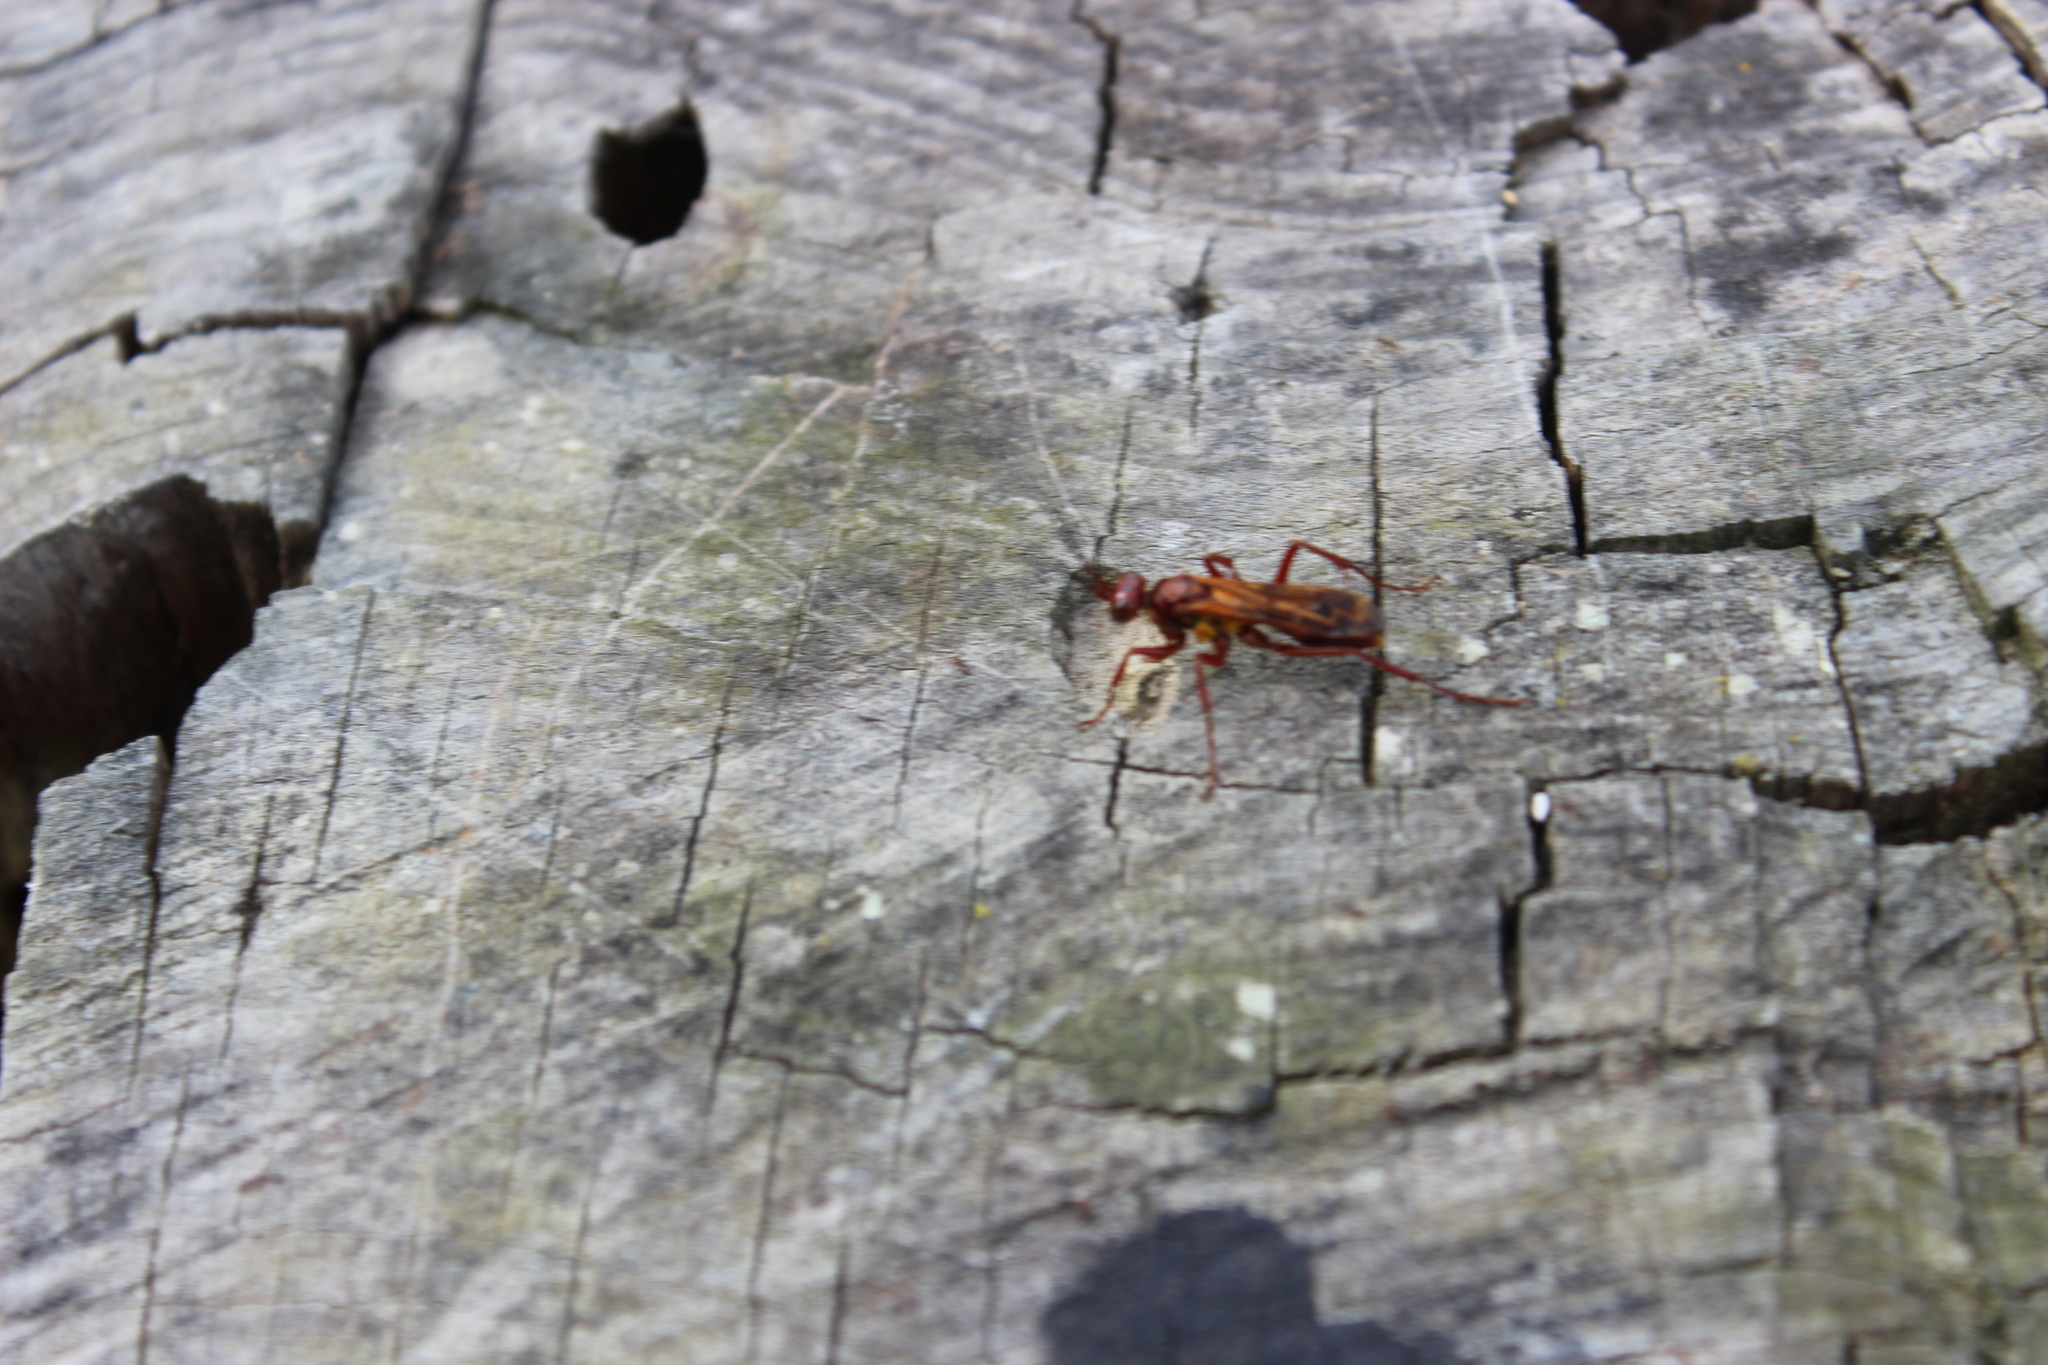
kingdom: Animalia
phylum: Arthropoda
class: Insecta
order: Hymenoptera
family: Pompilidae
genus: Sphictostethus
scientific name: Sphictostethus nitidus
